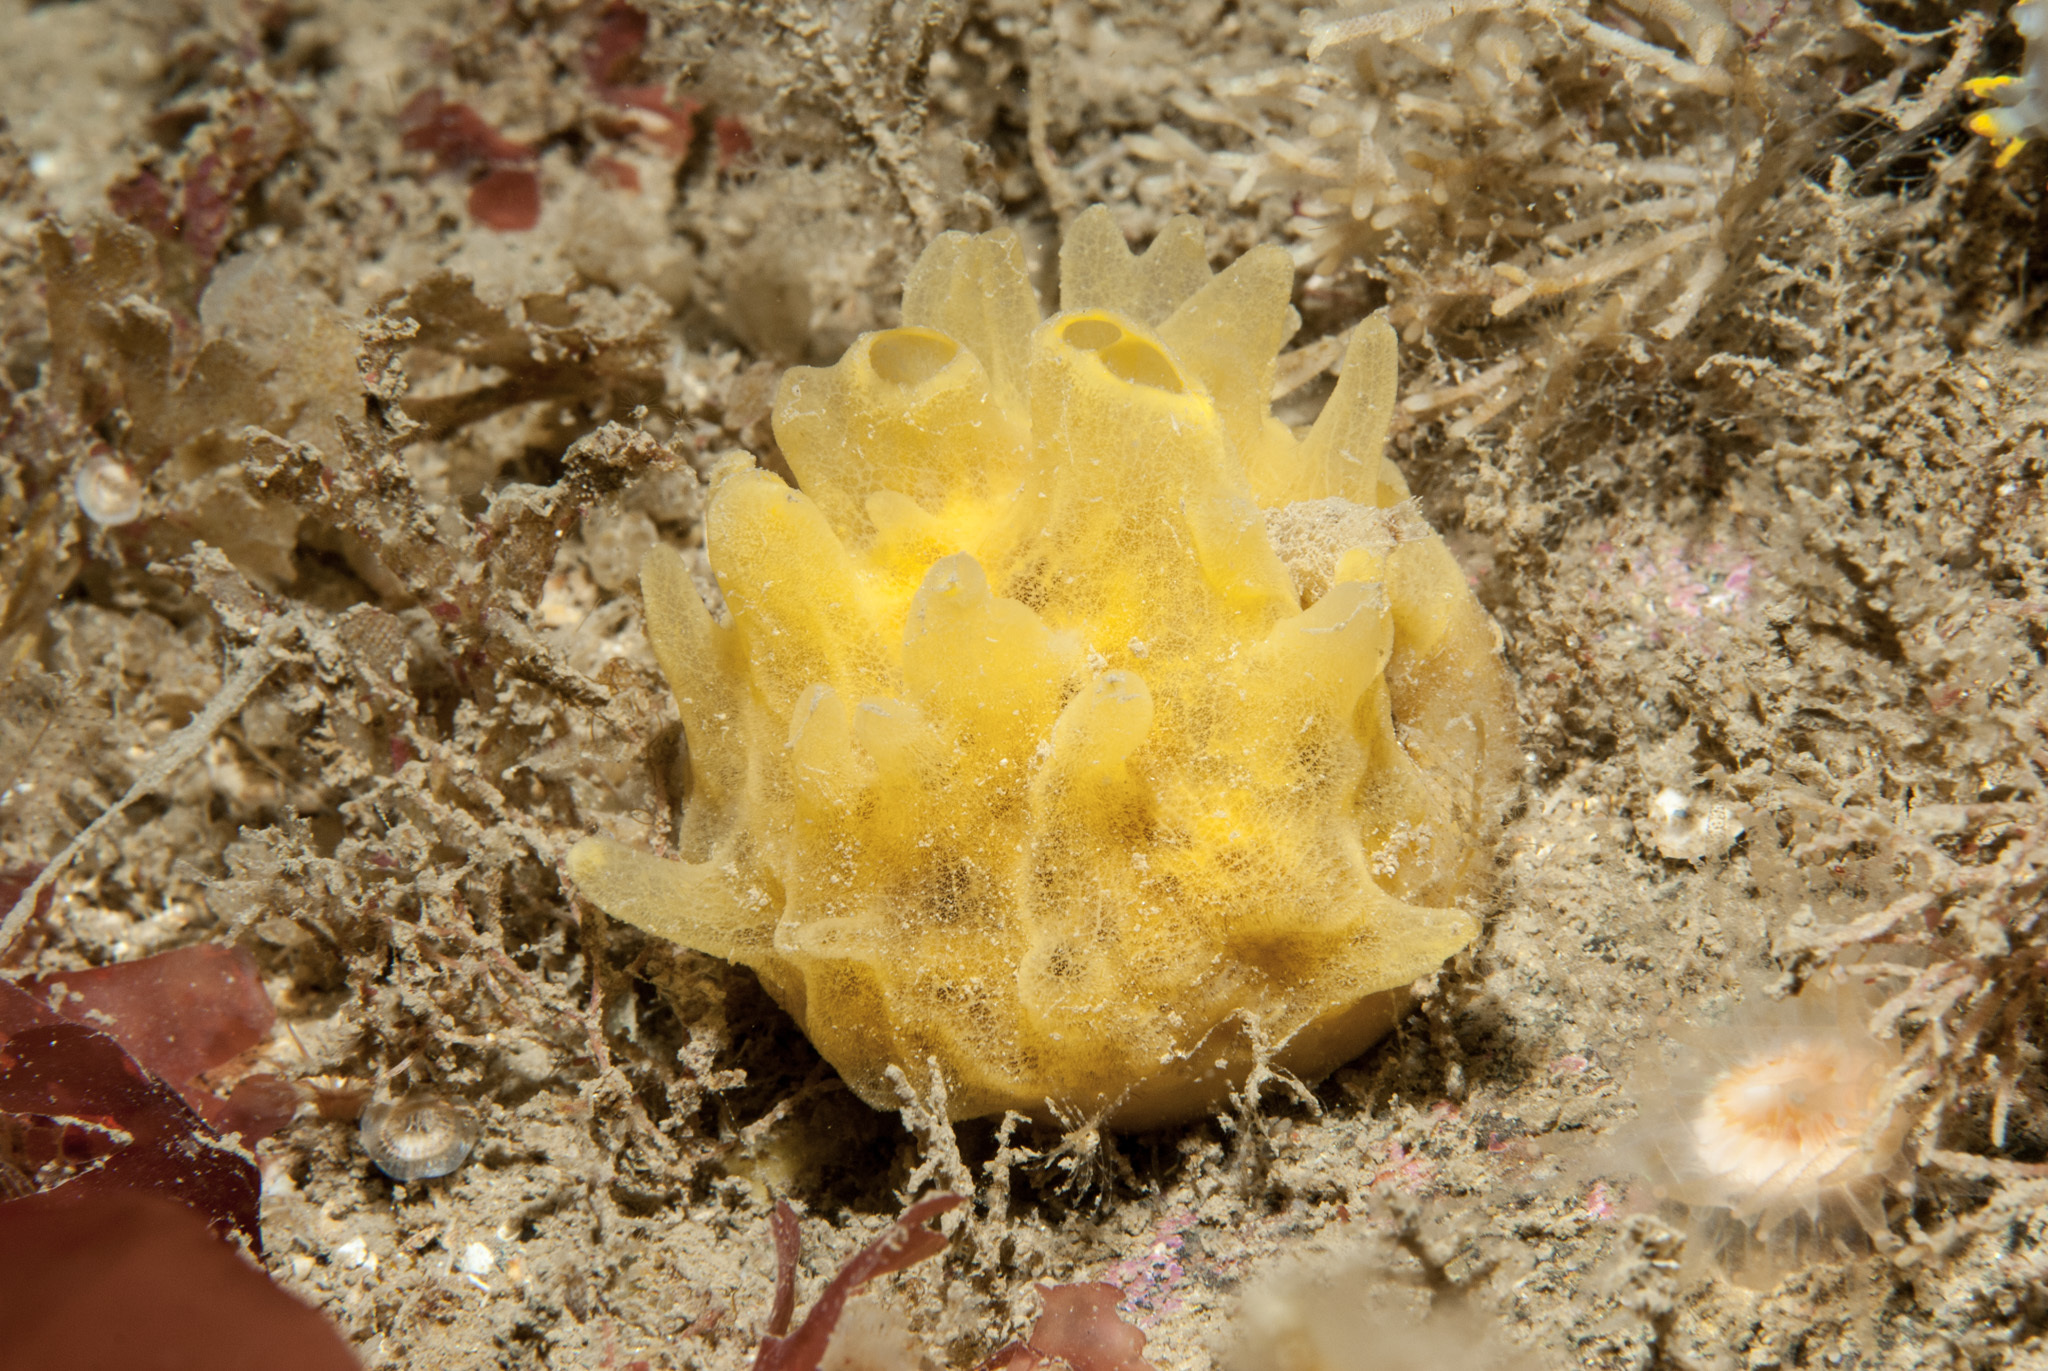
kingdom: Animalia
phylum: Porifera
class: Demospongiae
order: Polymastiida
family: Polymastiidae
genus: Polymastia
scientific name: Polymastia boletiformis
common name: Massive horny sponge
